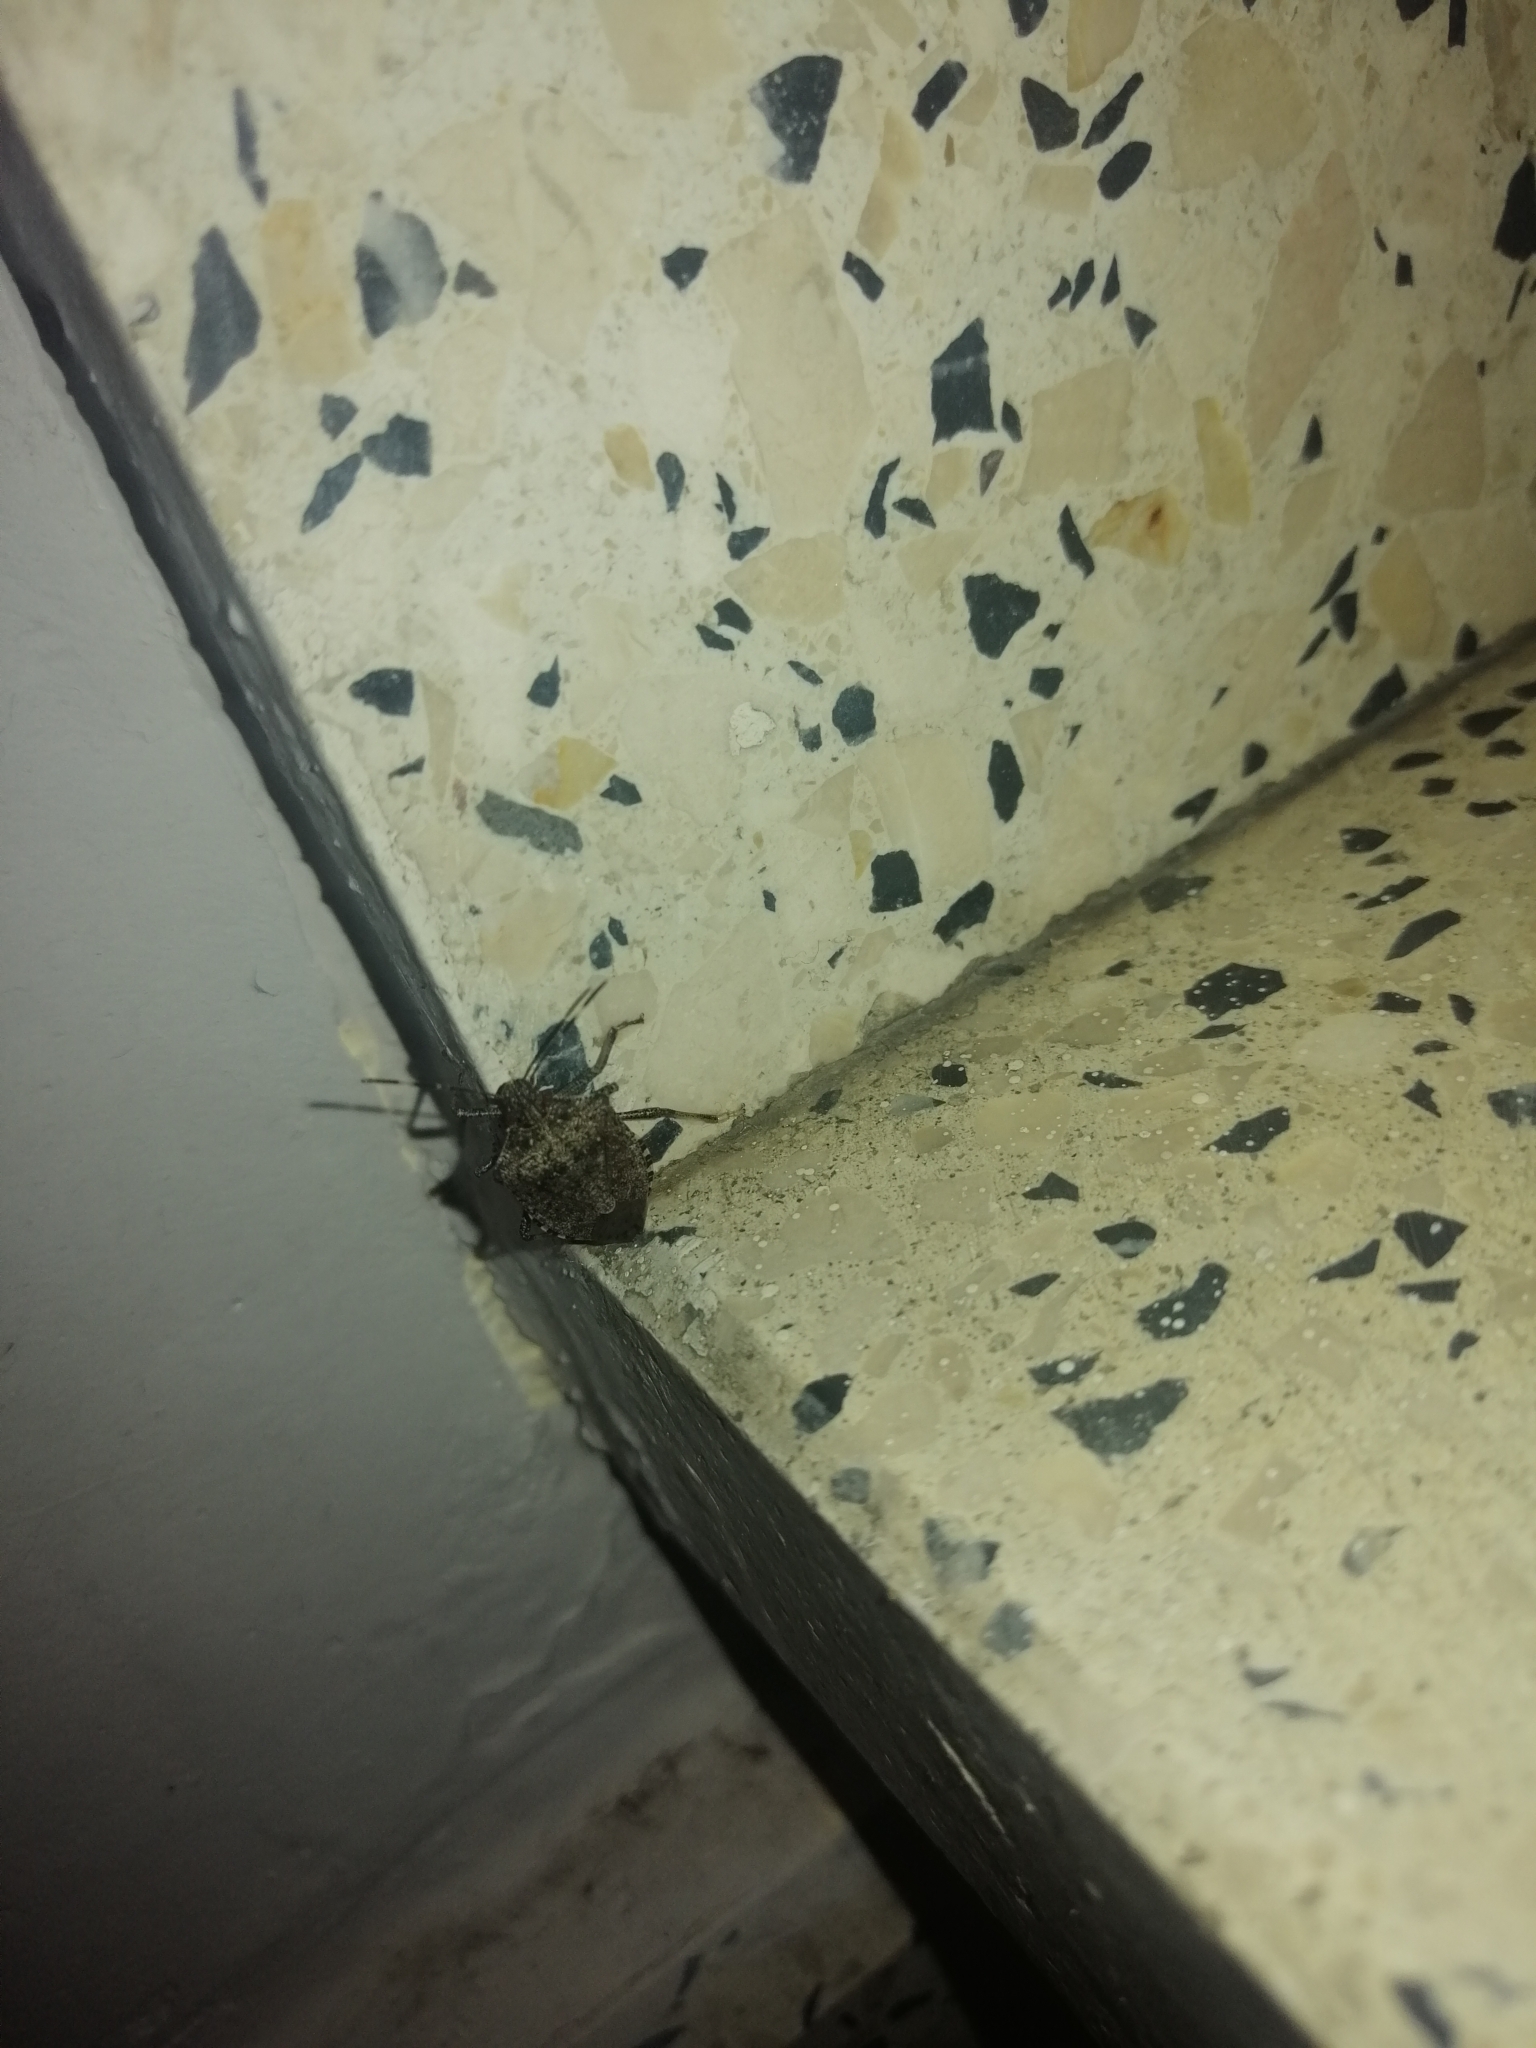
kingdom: Animalia
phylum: Arthropoda
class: Insecta
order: Hemiptera
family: Pentatomidae
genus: Halyomorpha
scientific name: Halyomorpha halys
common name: Brown marmorated stink bug
